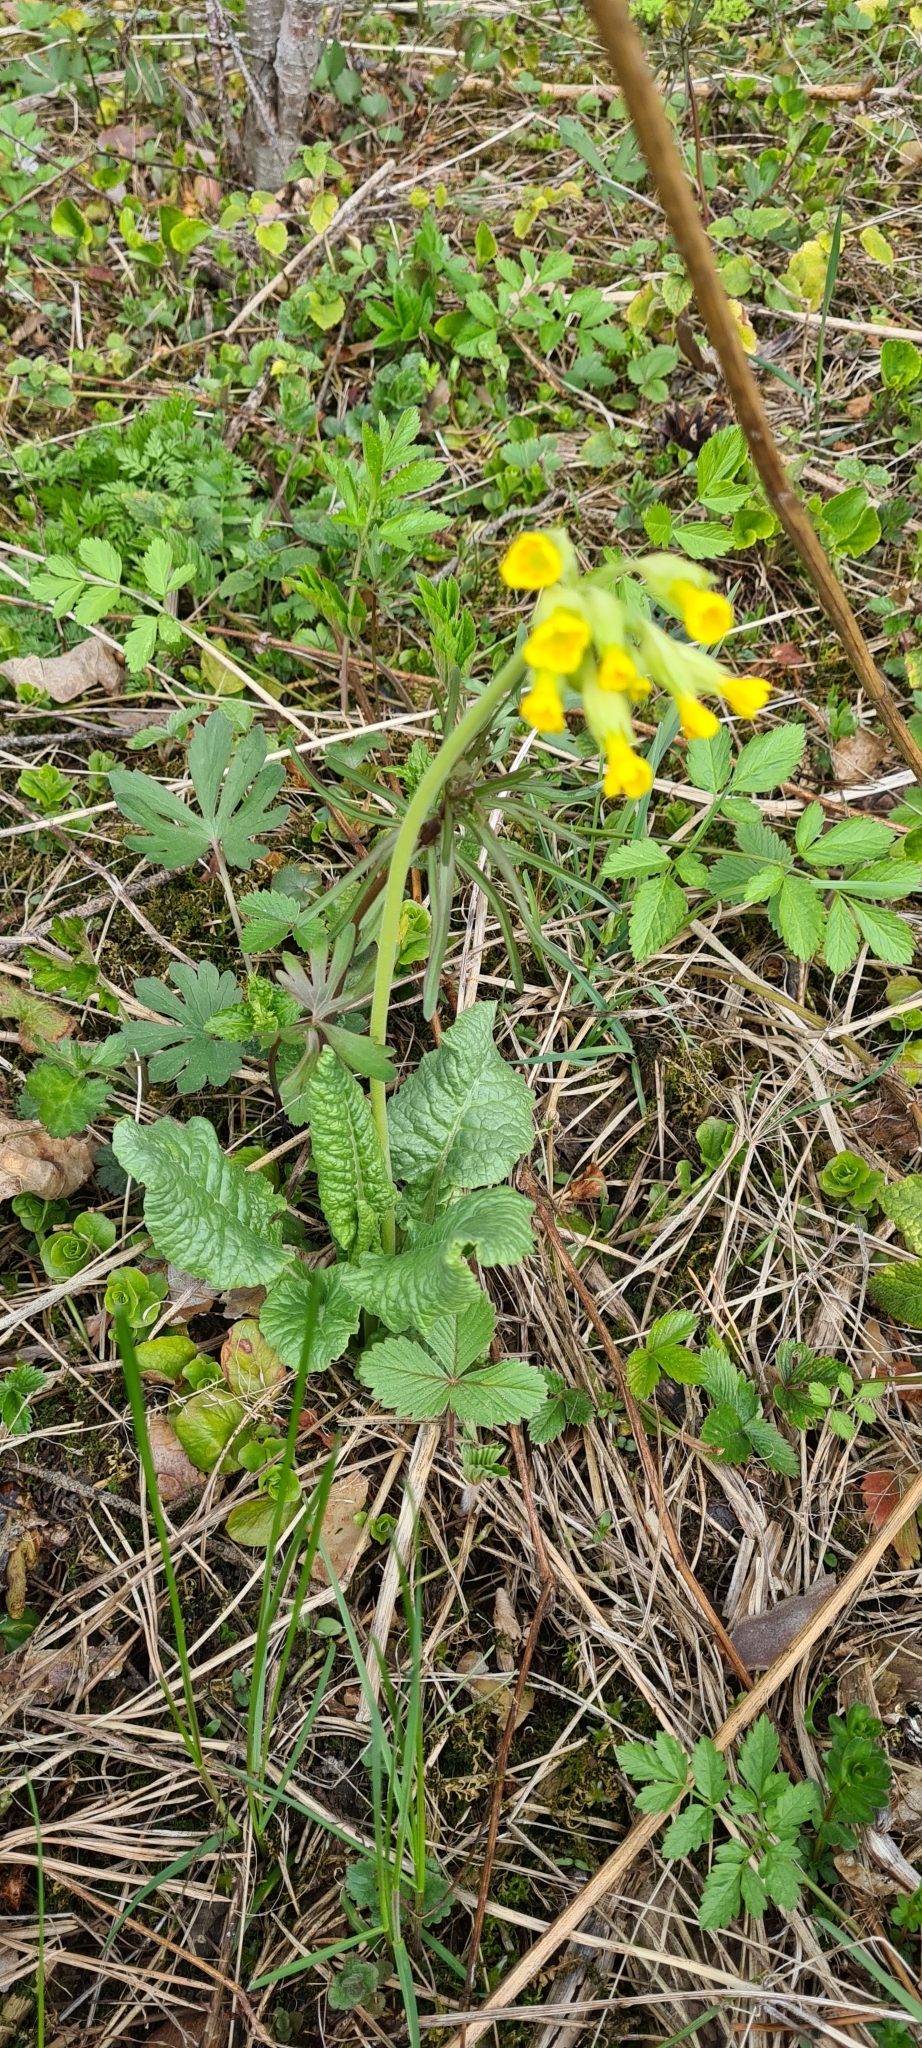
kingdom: Plantae
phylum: Tracheophyta
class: Magnoliopsida
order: Ericales
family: Primulaceae
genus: Primula
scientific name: Primula veris
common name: Cowslip
